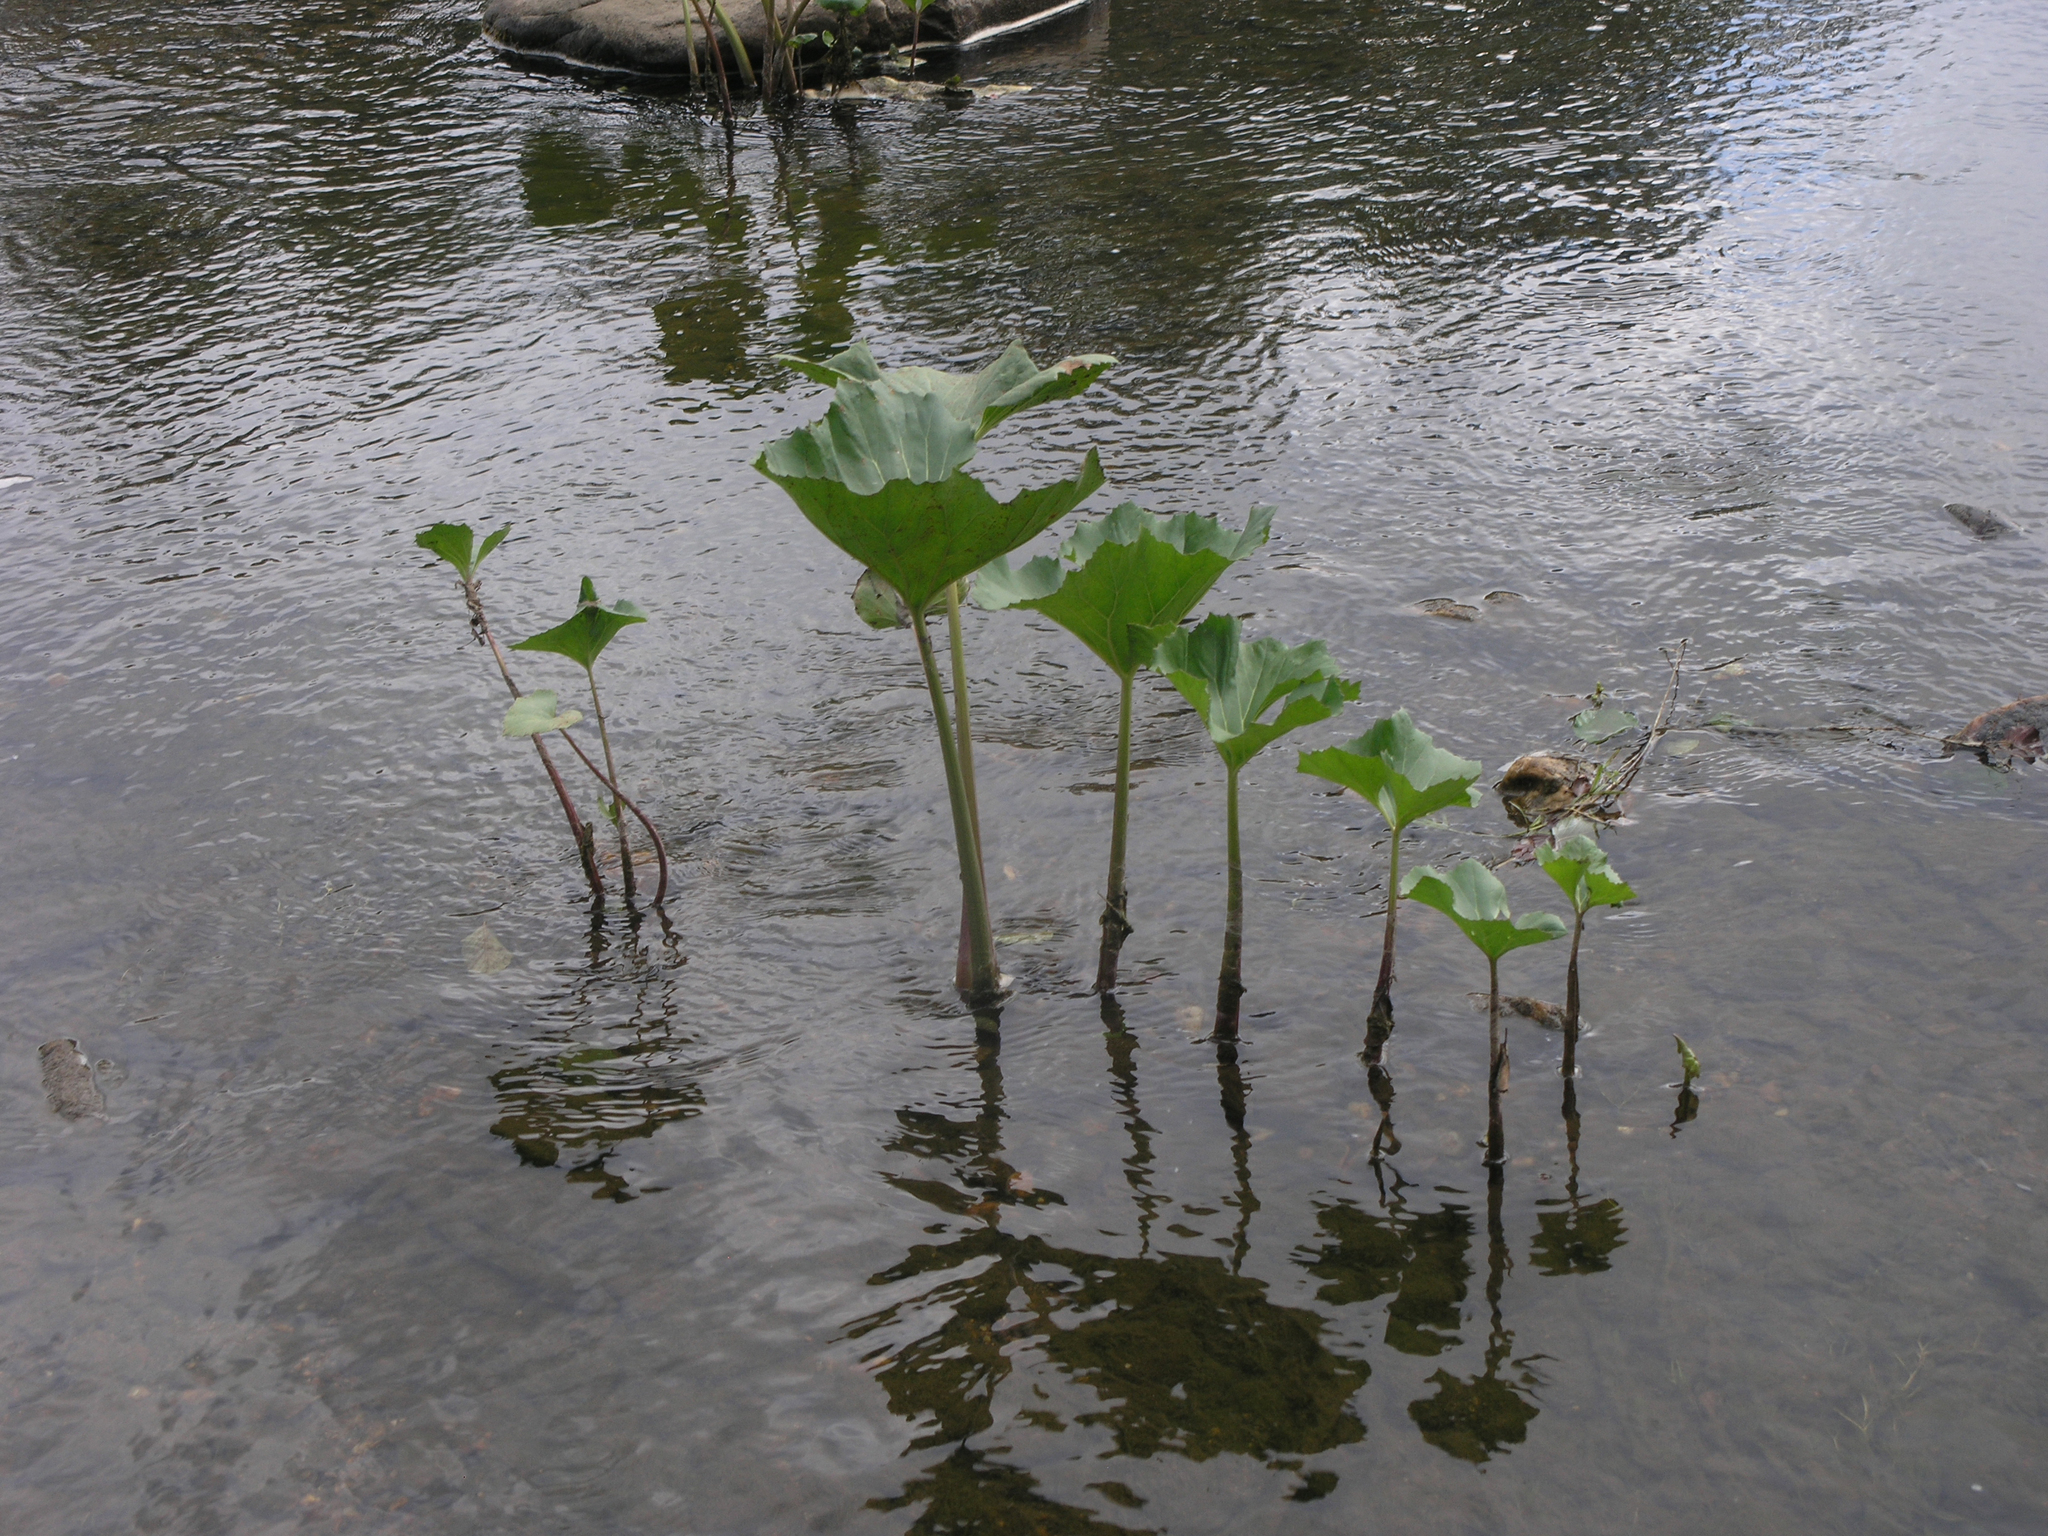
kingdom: Plantae
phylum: Tracheophyta
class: Magnoliopsida
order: Asterales
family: Asteraceae
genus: Petasites
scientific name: Petasites radiatus
